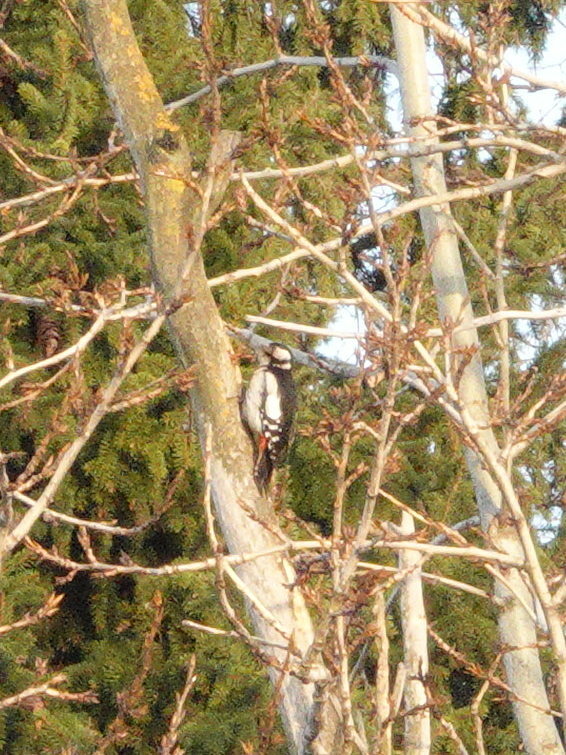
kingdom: Animalia
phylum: Chordata
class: Aves
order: Piciformes
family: Picidae
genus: Dendrocopos
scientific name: Dendrocopos major
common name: Great spotted woodpecker
